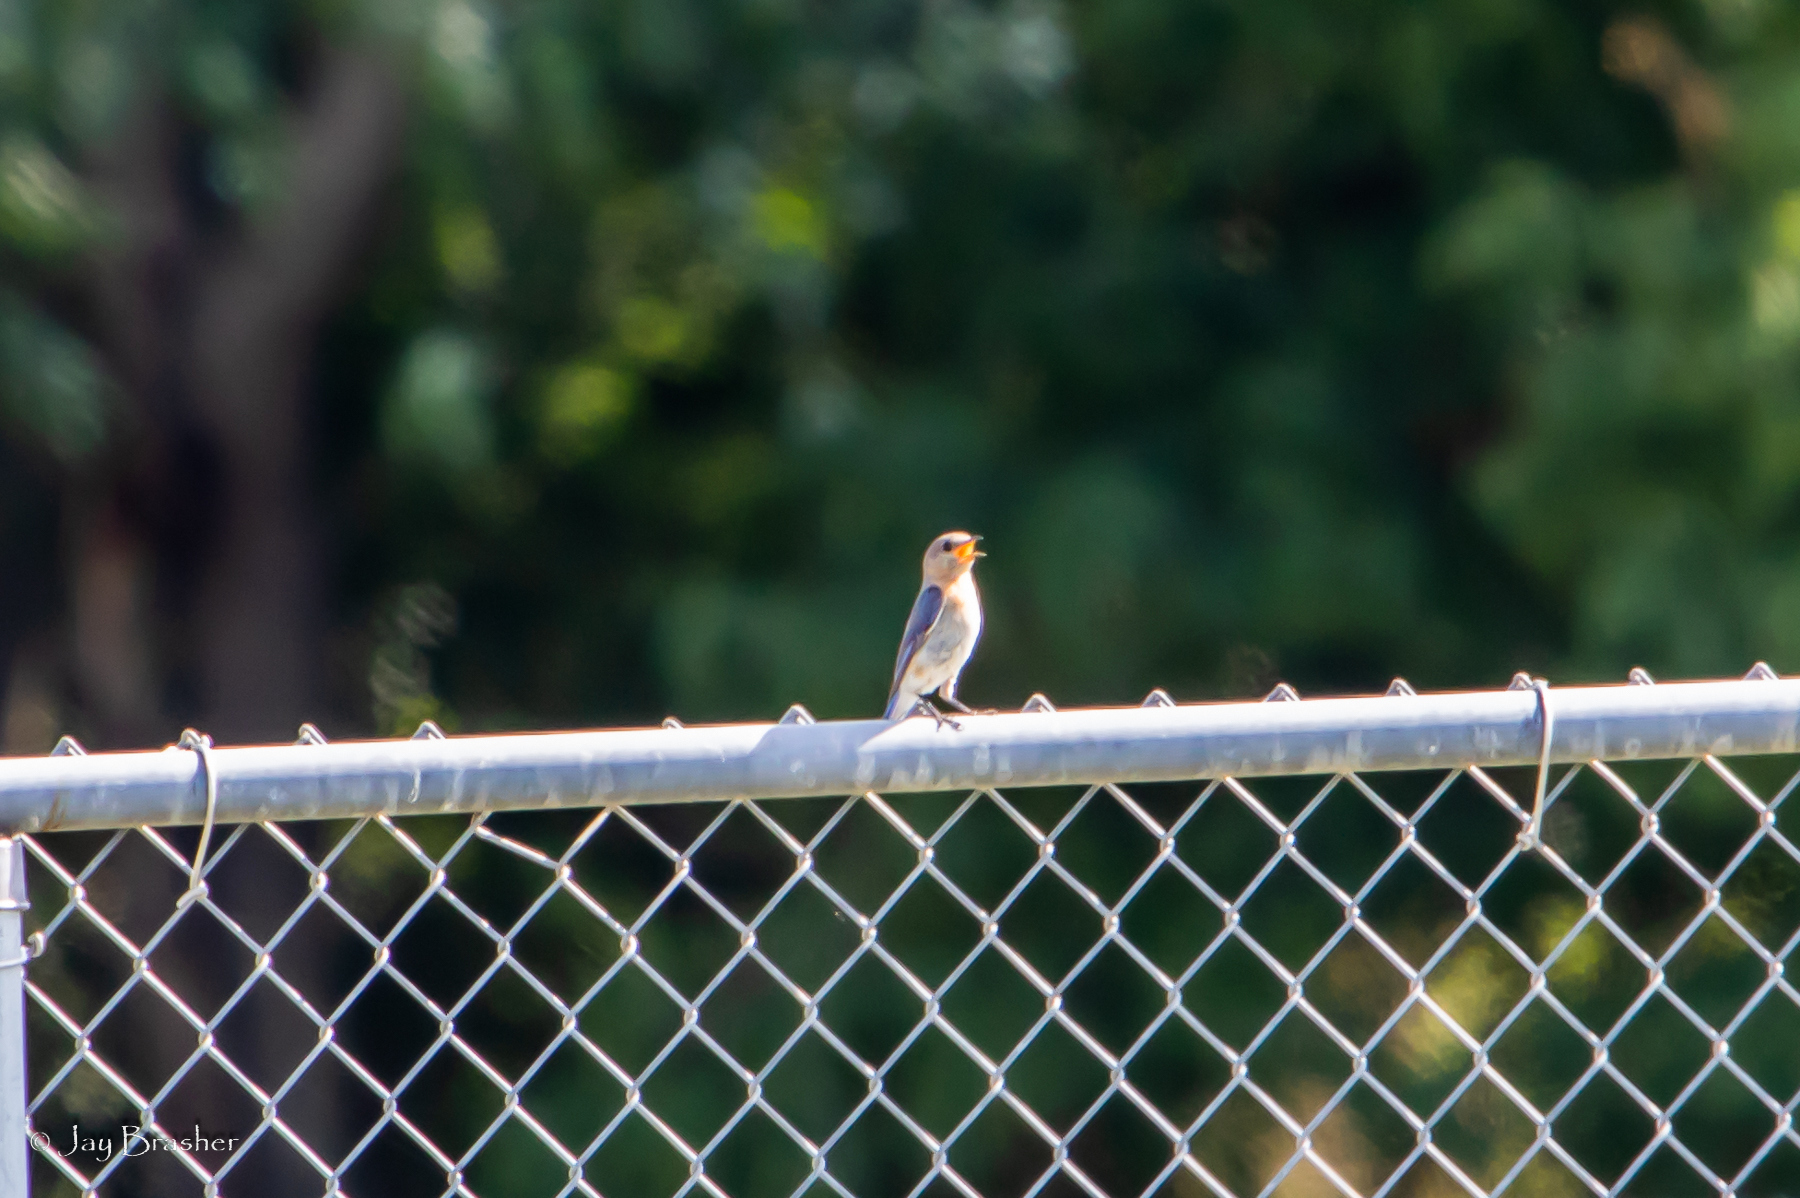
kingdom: Animalia
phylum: Chordata
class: Aves
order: Passeriformes
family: Turdidae
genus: Sialia
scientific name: Sialia sialis
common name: Eastern bluebird
